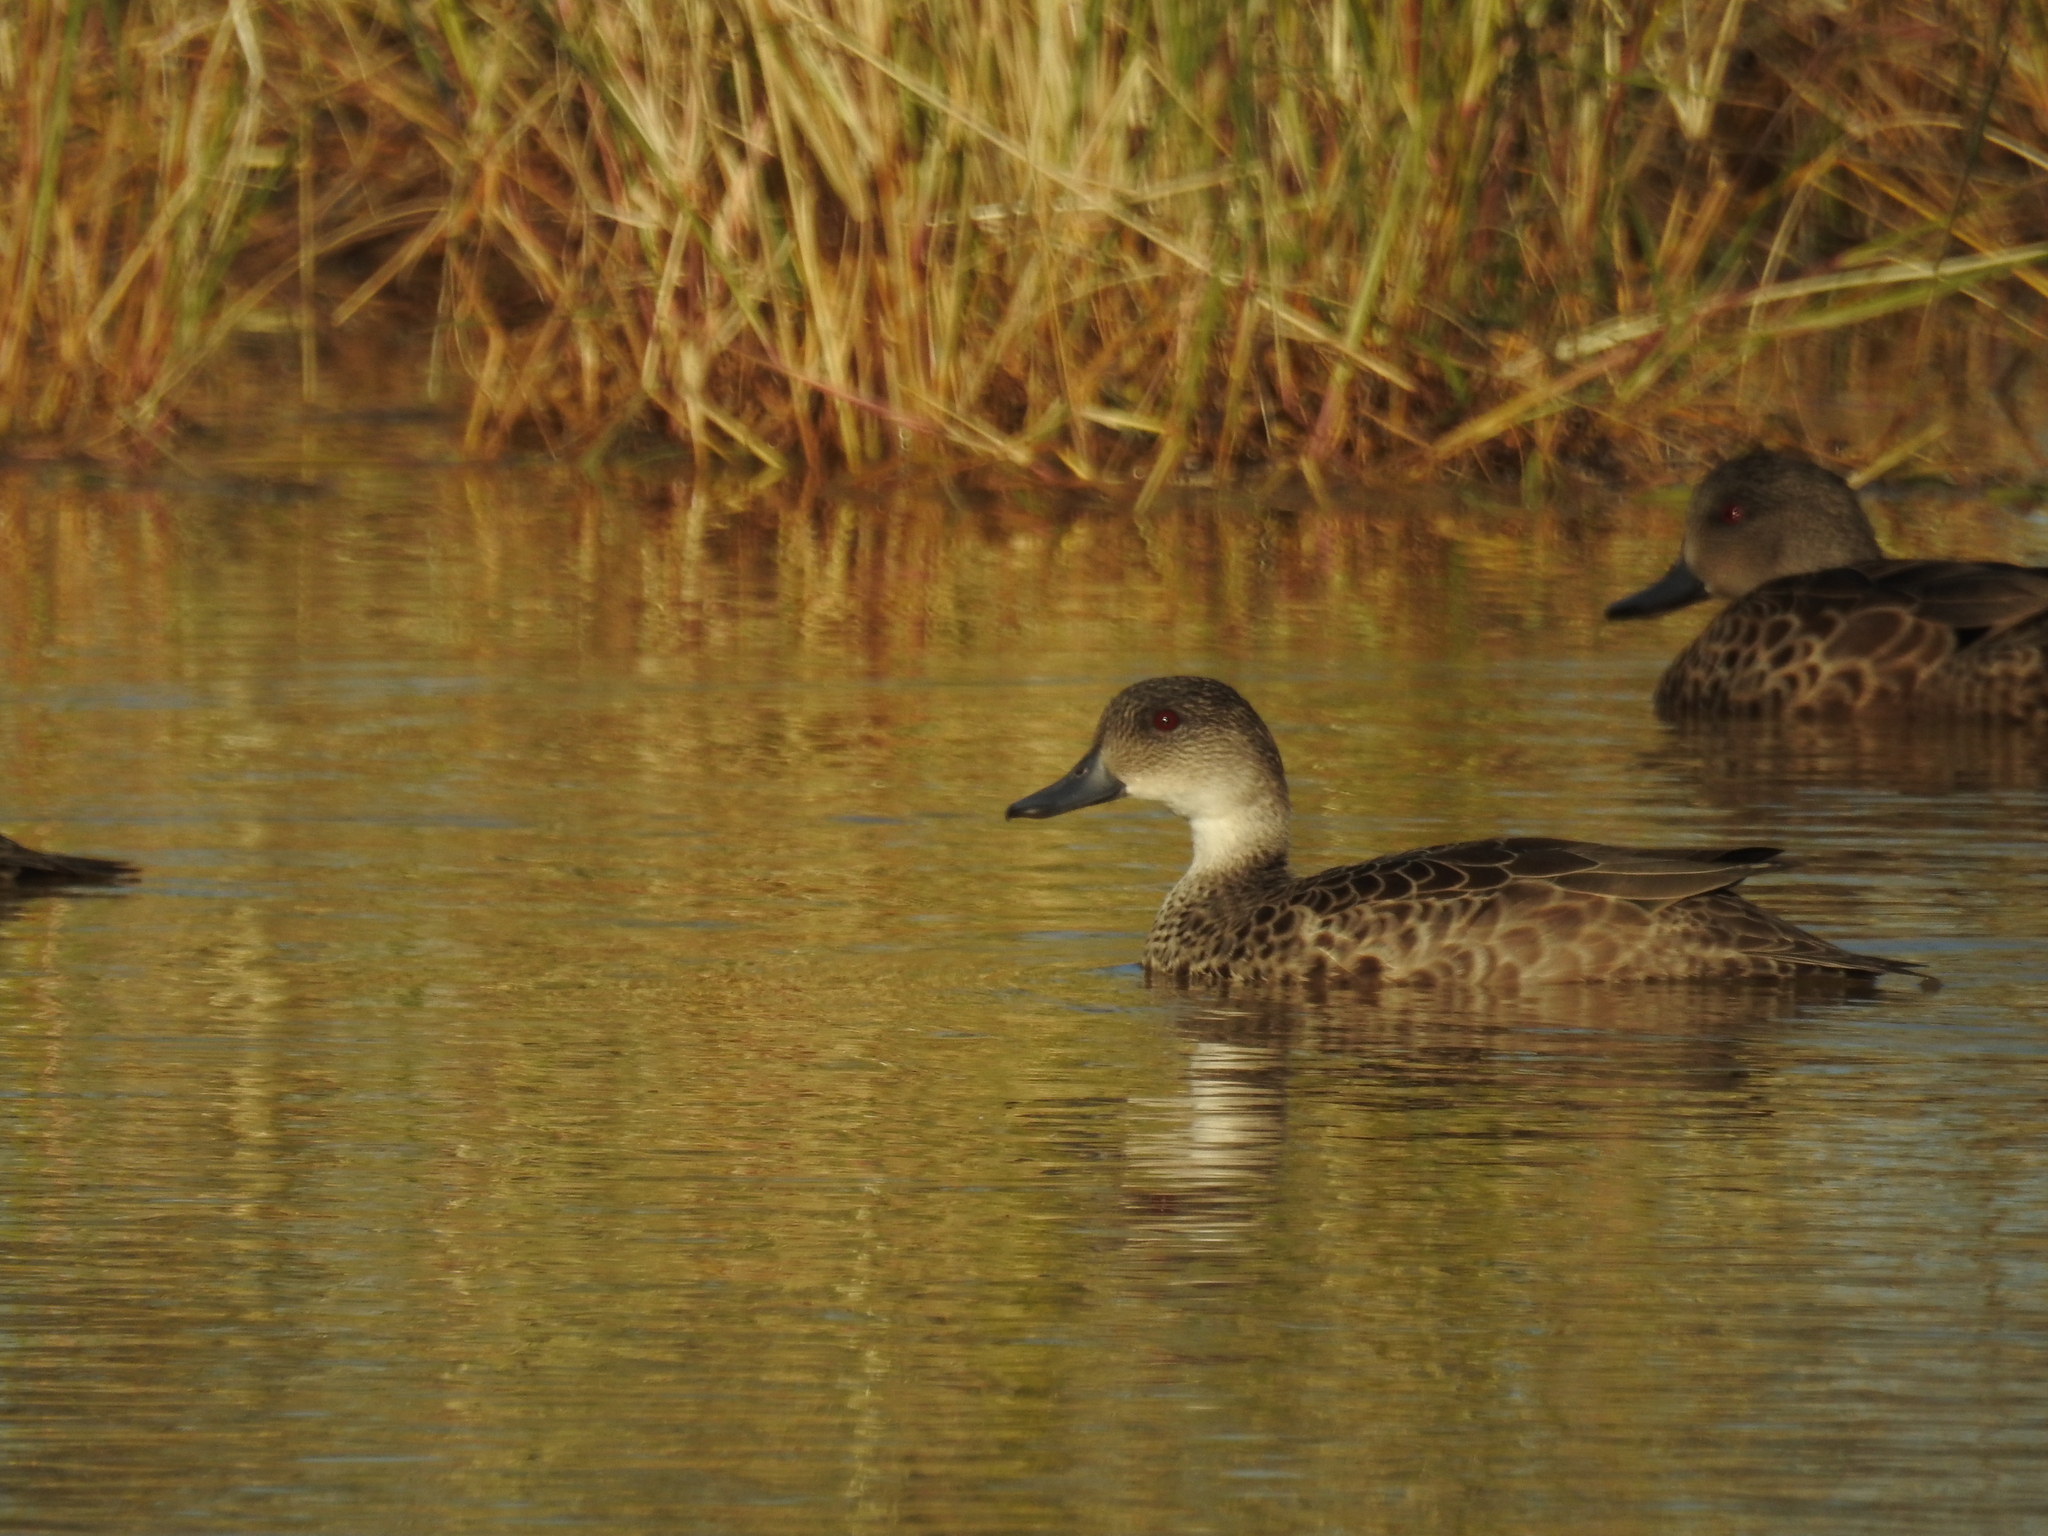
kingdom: Animalia
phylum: Chordata
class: Aves
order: Anseriformes
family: Anatidae
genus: Anas
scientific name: Anas gracilis
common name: Grey teal
